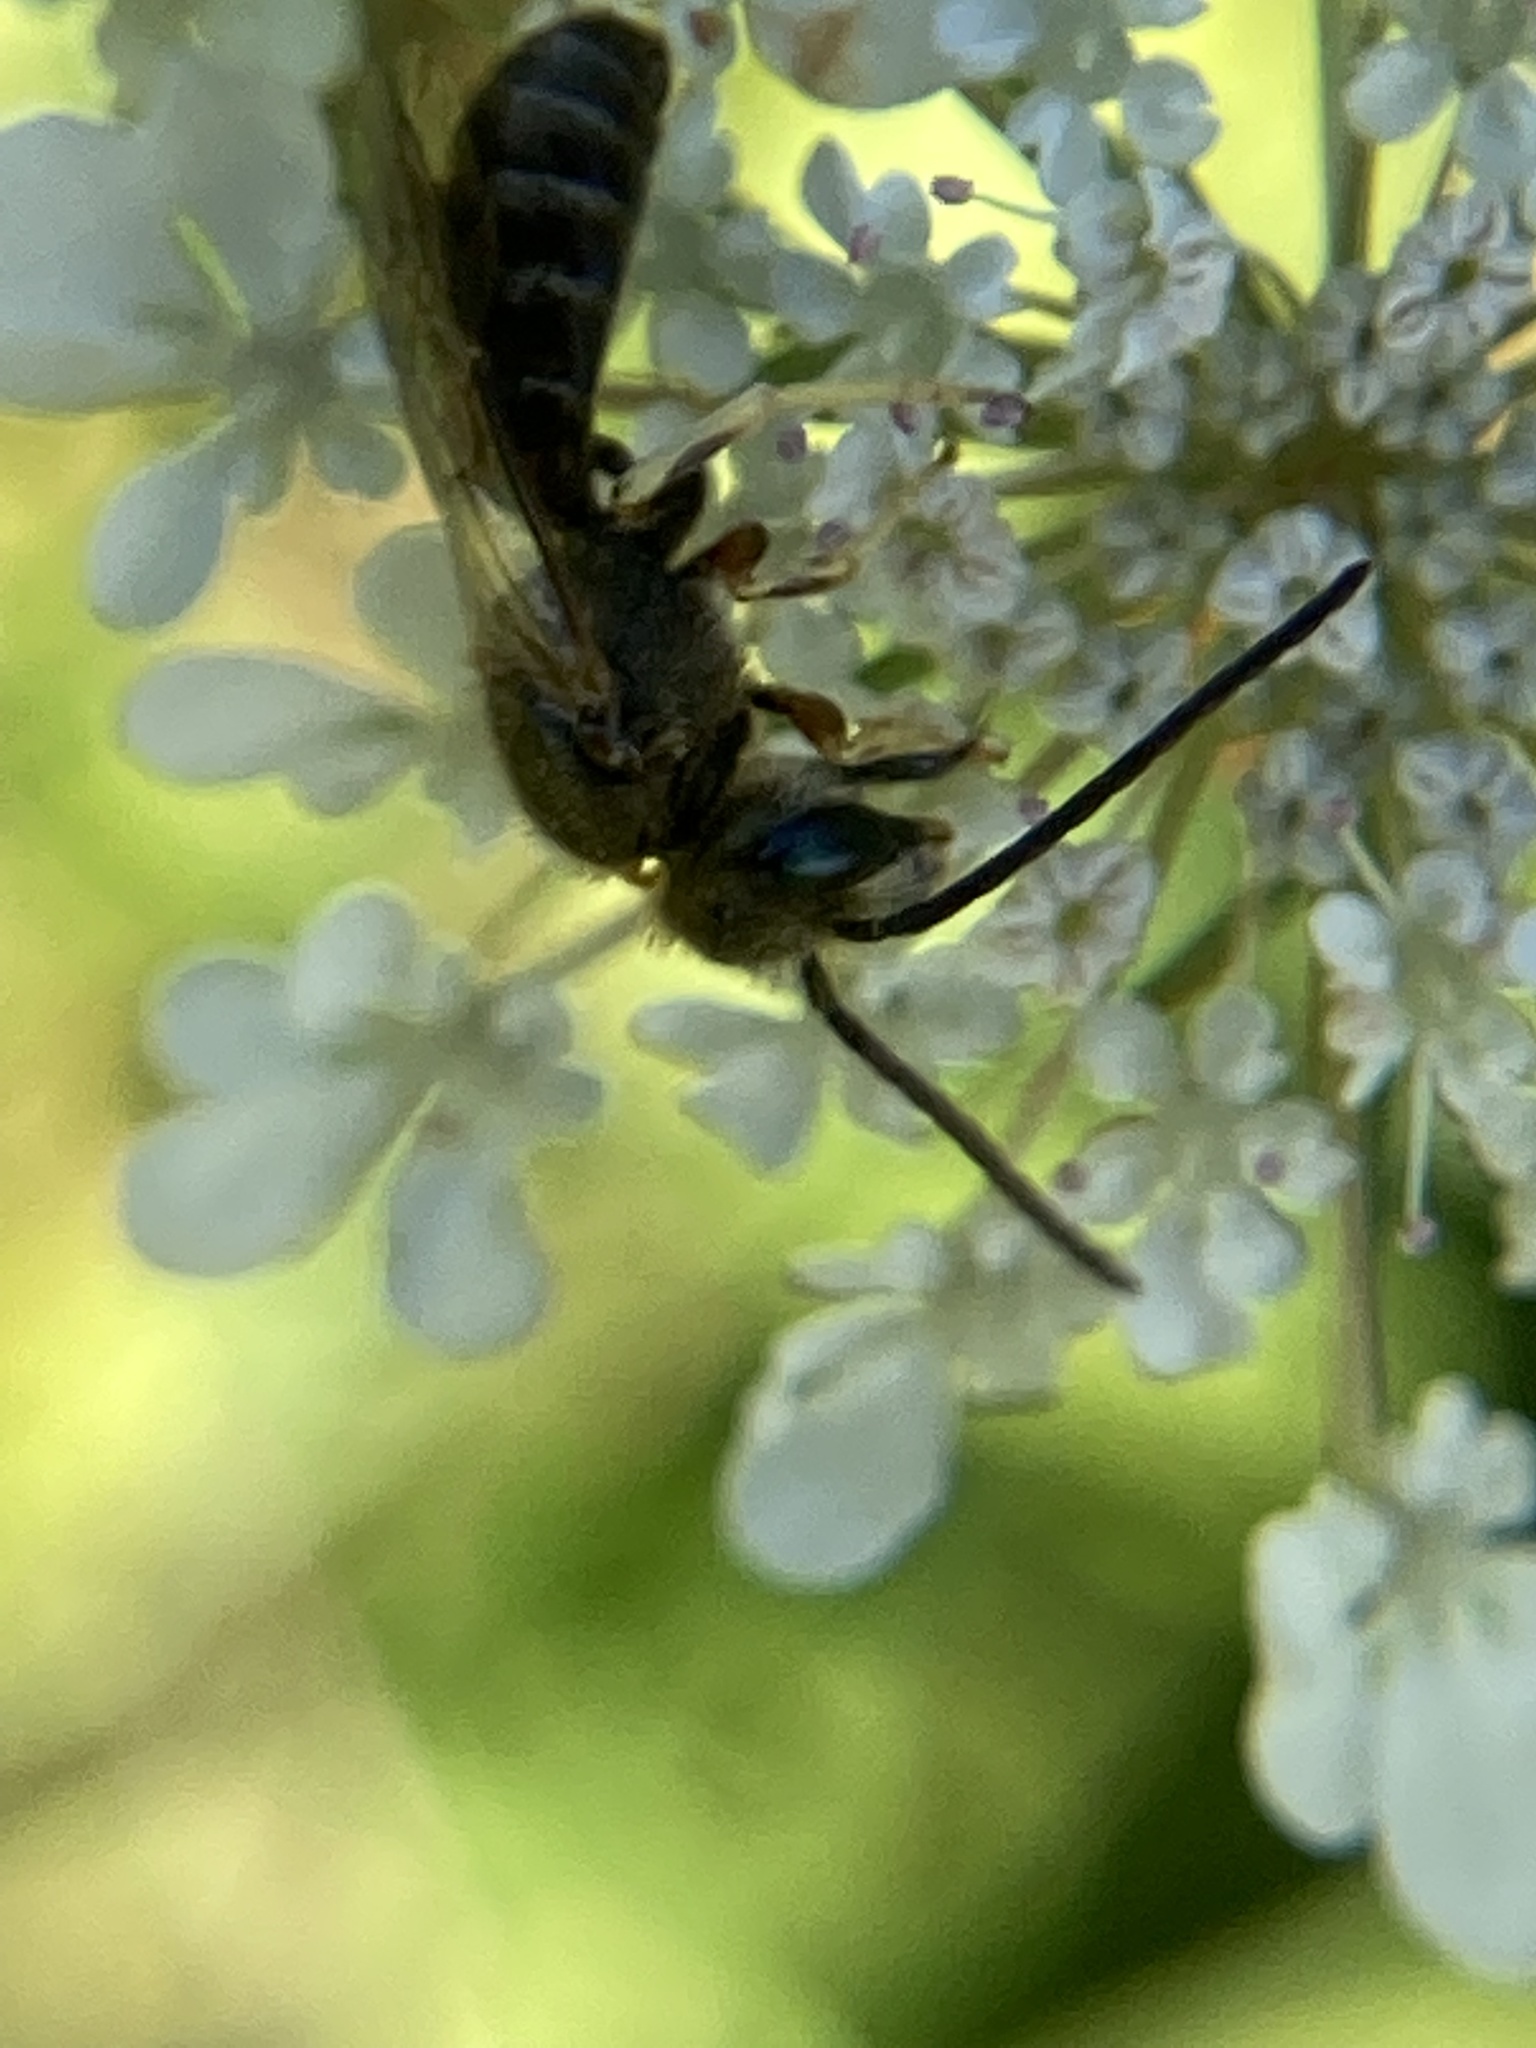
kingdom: Animalia
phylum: Arthropoda
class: Insecta
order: Hymenoptera
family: Halictidae
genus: Halictus
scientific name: Halictus confusus
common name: Southern bronze furrow bee
